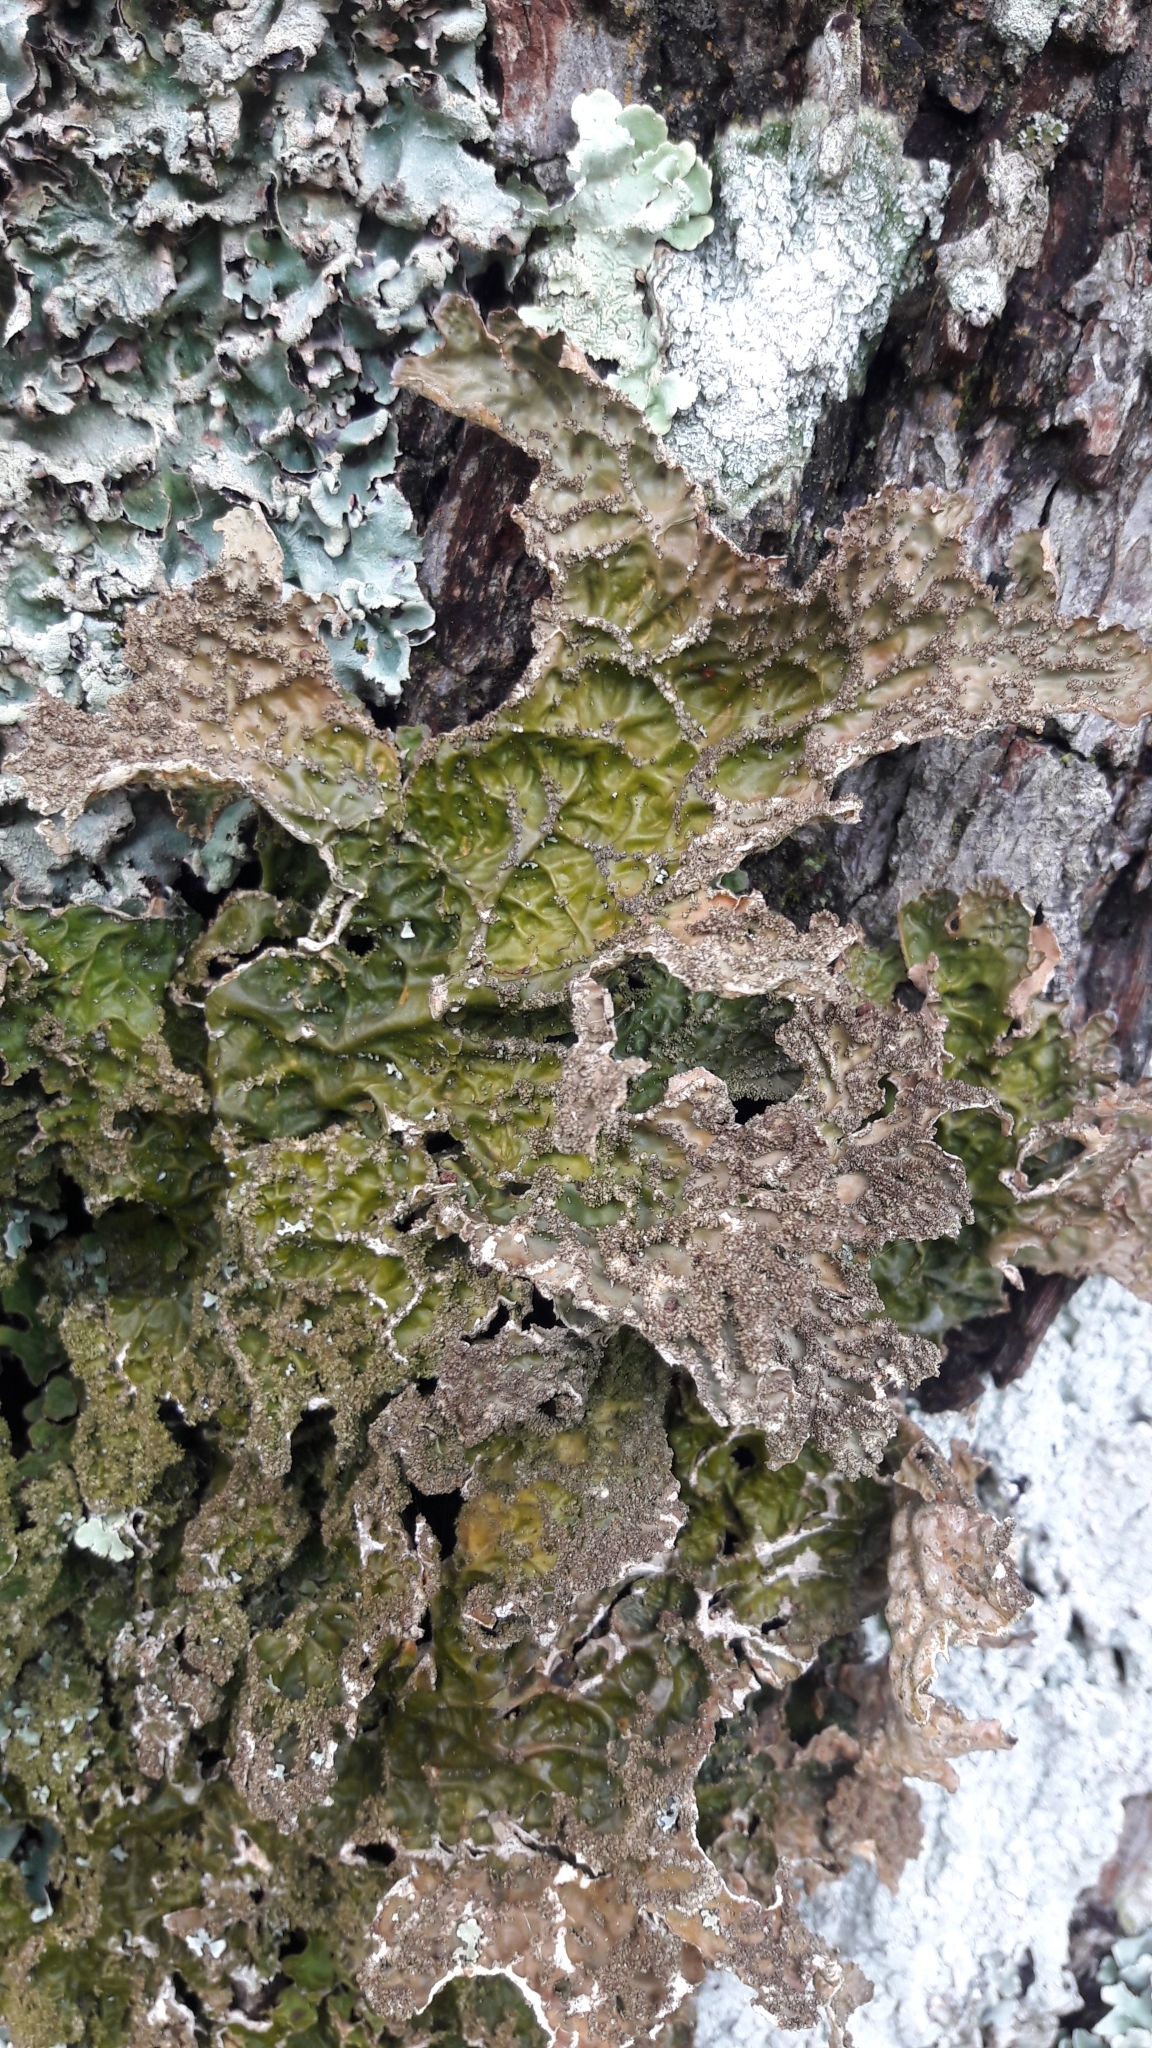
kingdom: Fungi
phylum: Ascomycota
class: Lecanoromycetes
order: Peltigerales
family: Lobariaceae
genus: Lobaria
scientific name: Lobaria pulmonaria
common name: Lungwort
